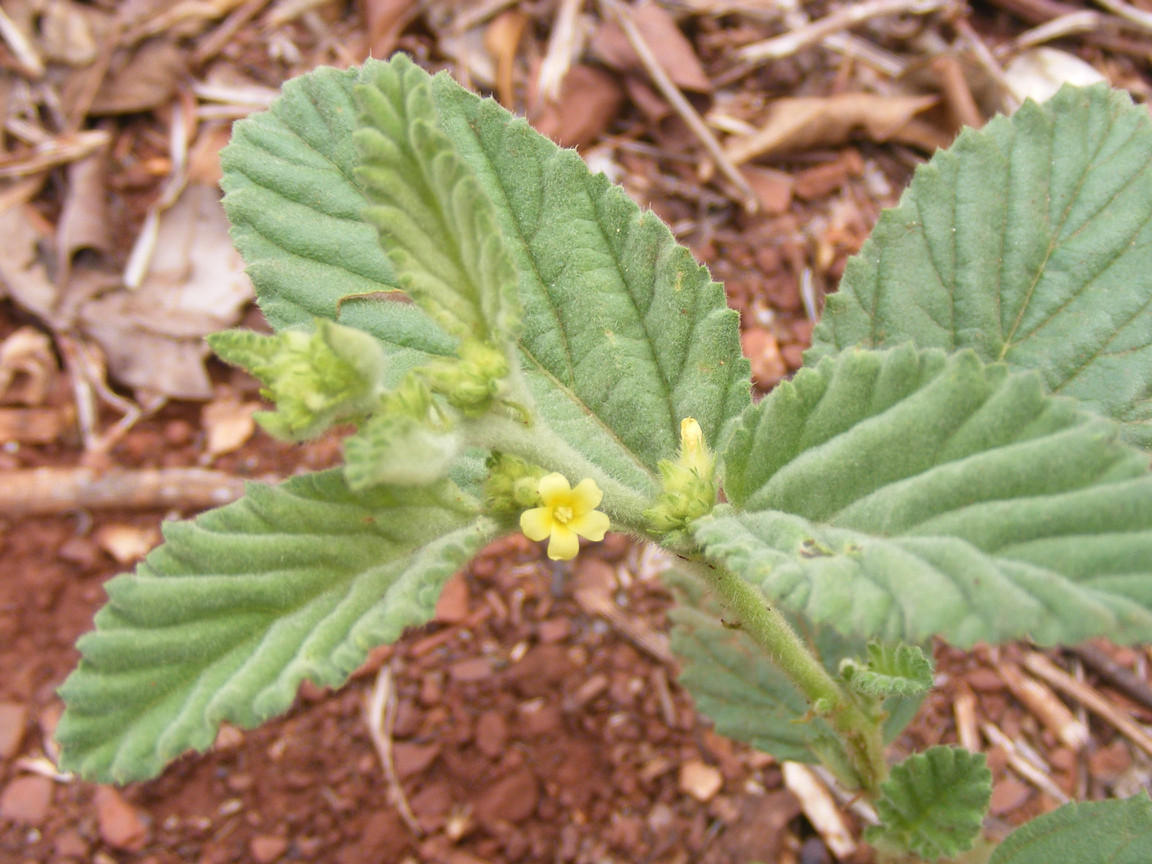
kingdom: Plantae
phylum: Tracheophyta
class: Magnoliopsida
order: Malvales
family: Malvaceae
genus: Waltheria
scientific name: Waltheria indica
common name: Leather-coat
